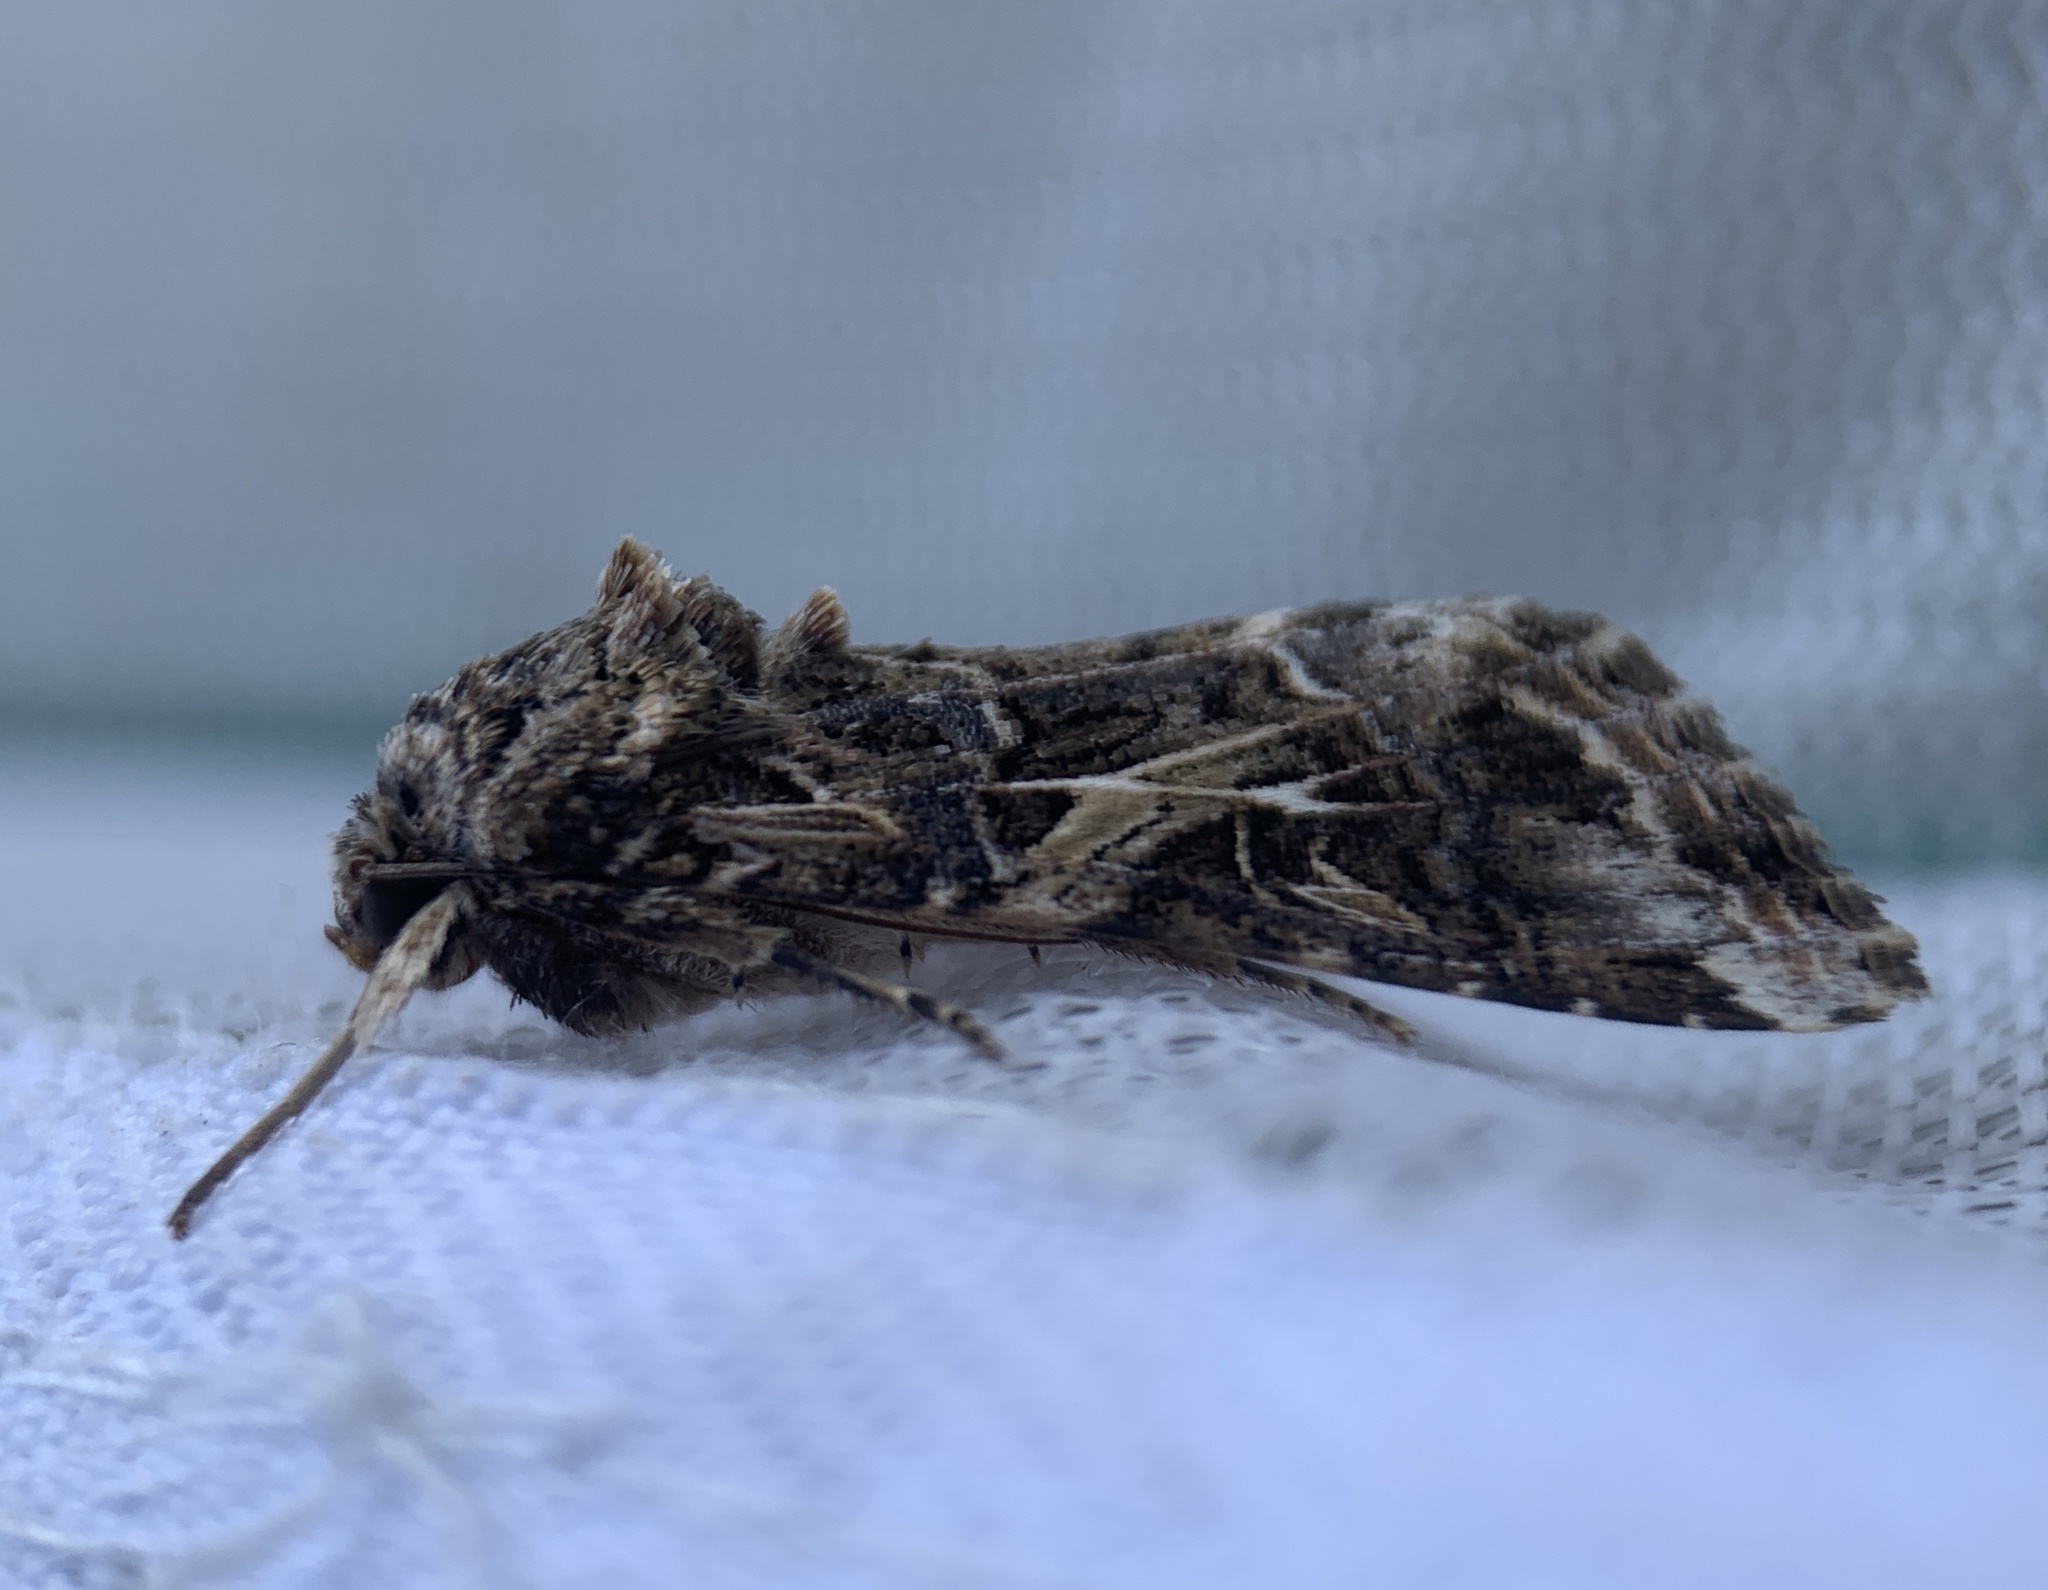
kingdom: Animalia
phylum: Arthropoda
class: Insecta
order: Lepidoptera
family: Noctuidae
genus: Spodoptera
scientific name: Spodoptera ornithogalli
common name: Yellow-striped armyworm
